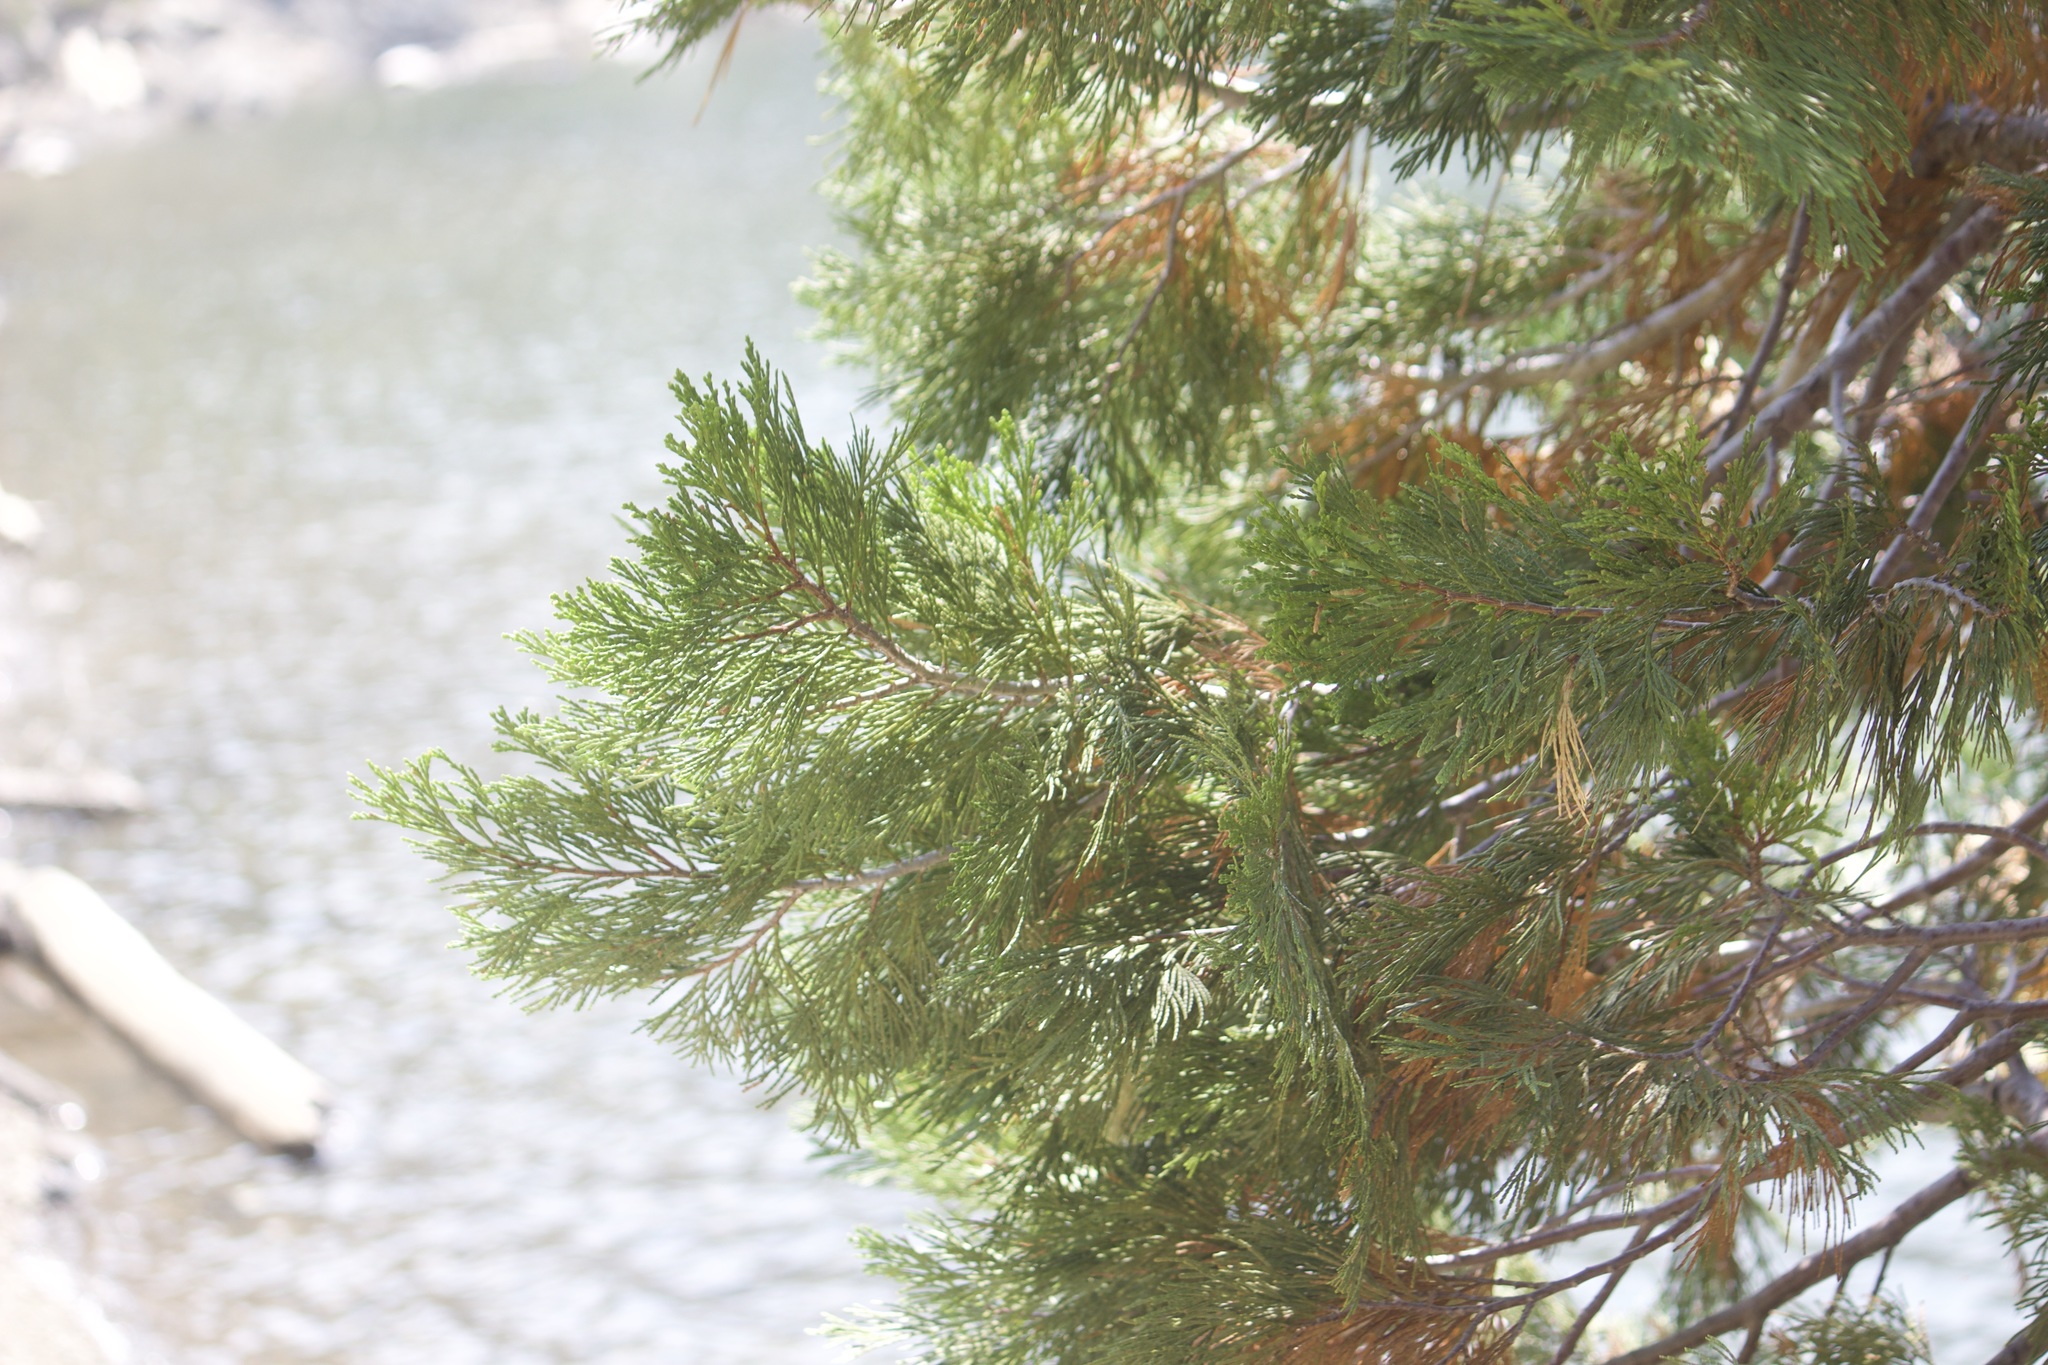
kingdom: Plantae
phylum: Tracheophyta
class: Pinopsida
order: Pinales
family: Cupressaceae
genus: Calocedrus
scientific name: Calocedrus decurrens
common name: Californian incense-cedar
